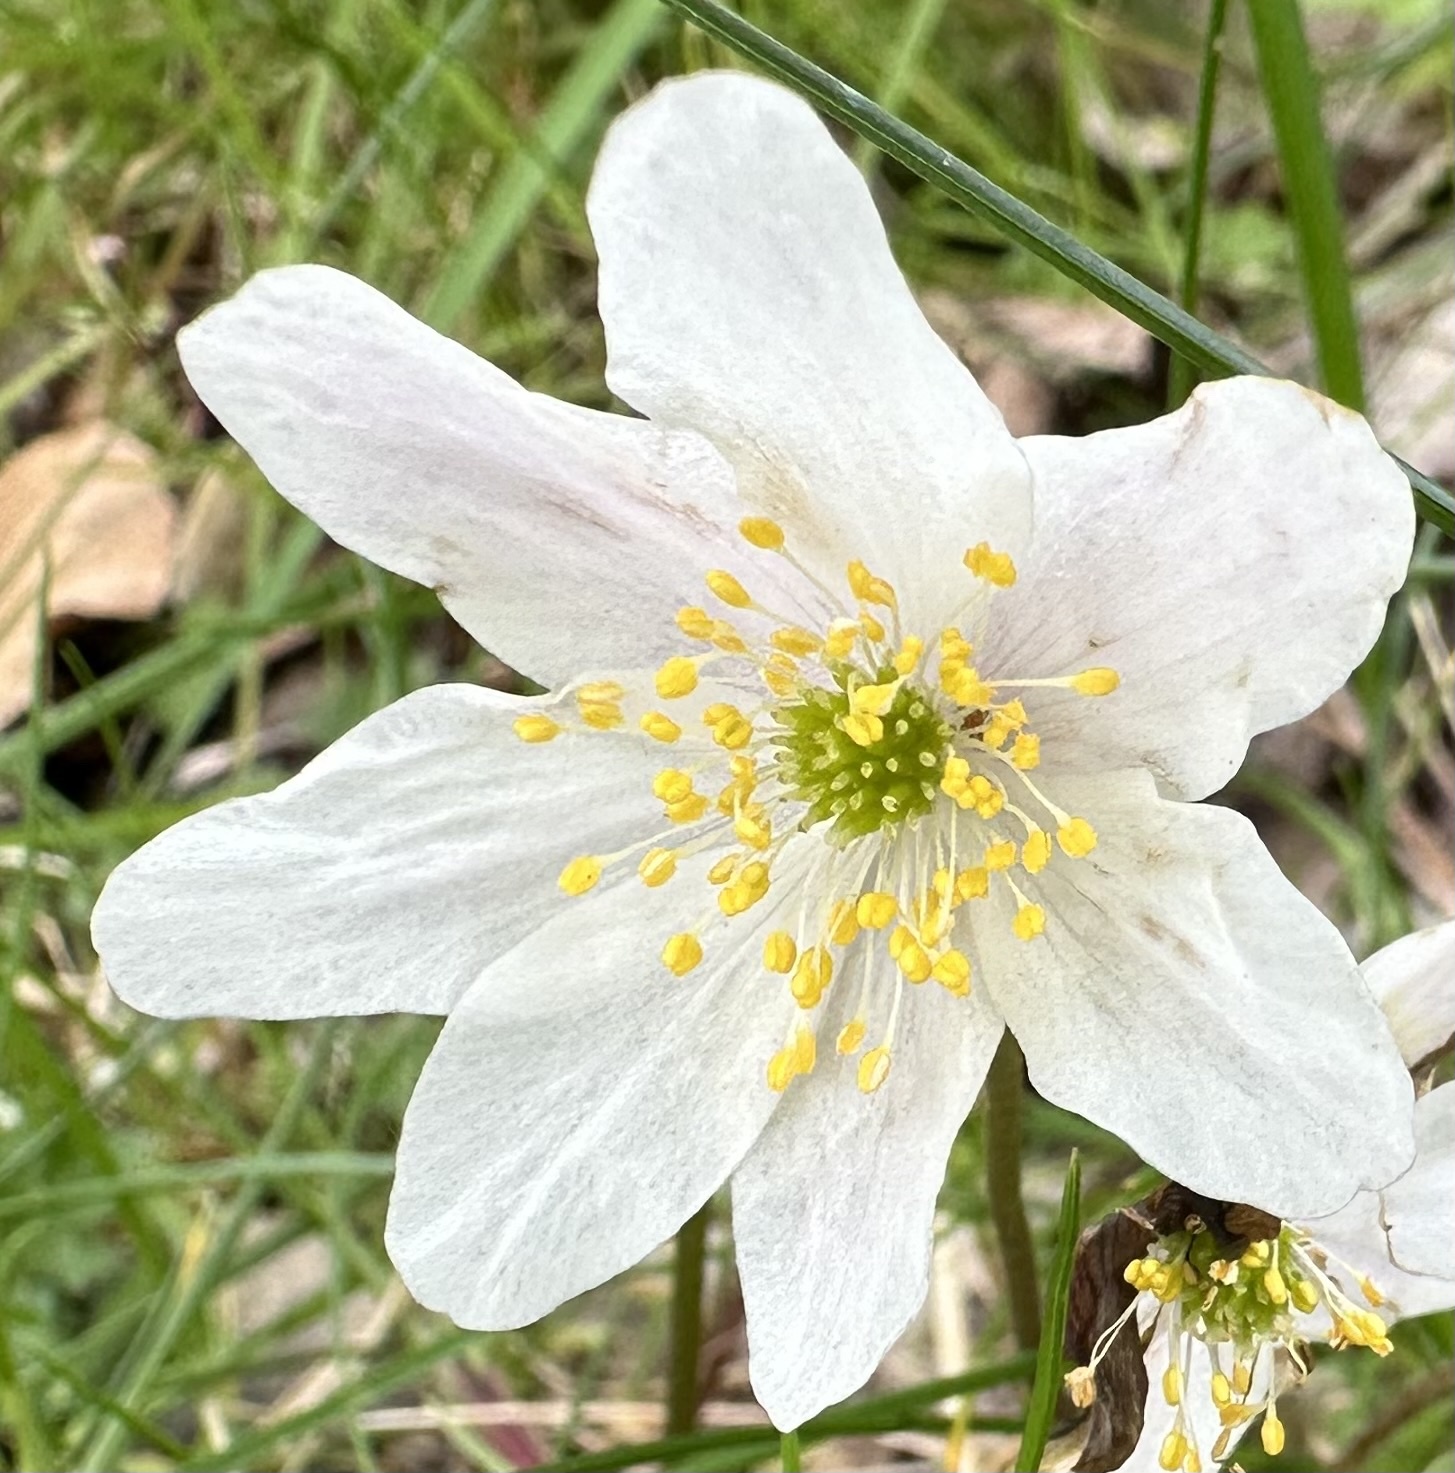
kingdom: Plantae
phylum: Tracheophyta
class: Magnoliopsida
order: Ranunculales
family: Ranunculaceae
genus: Anemone
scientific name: Anemone nemorosa
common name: Wood anemone
